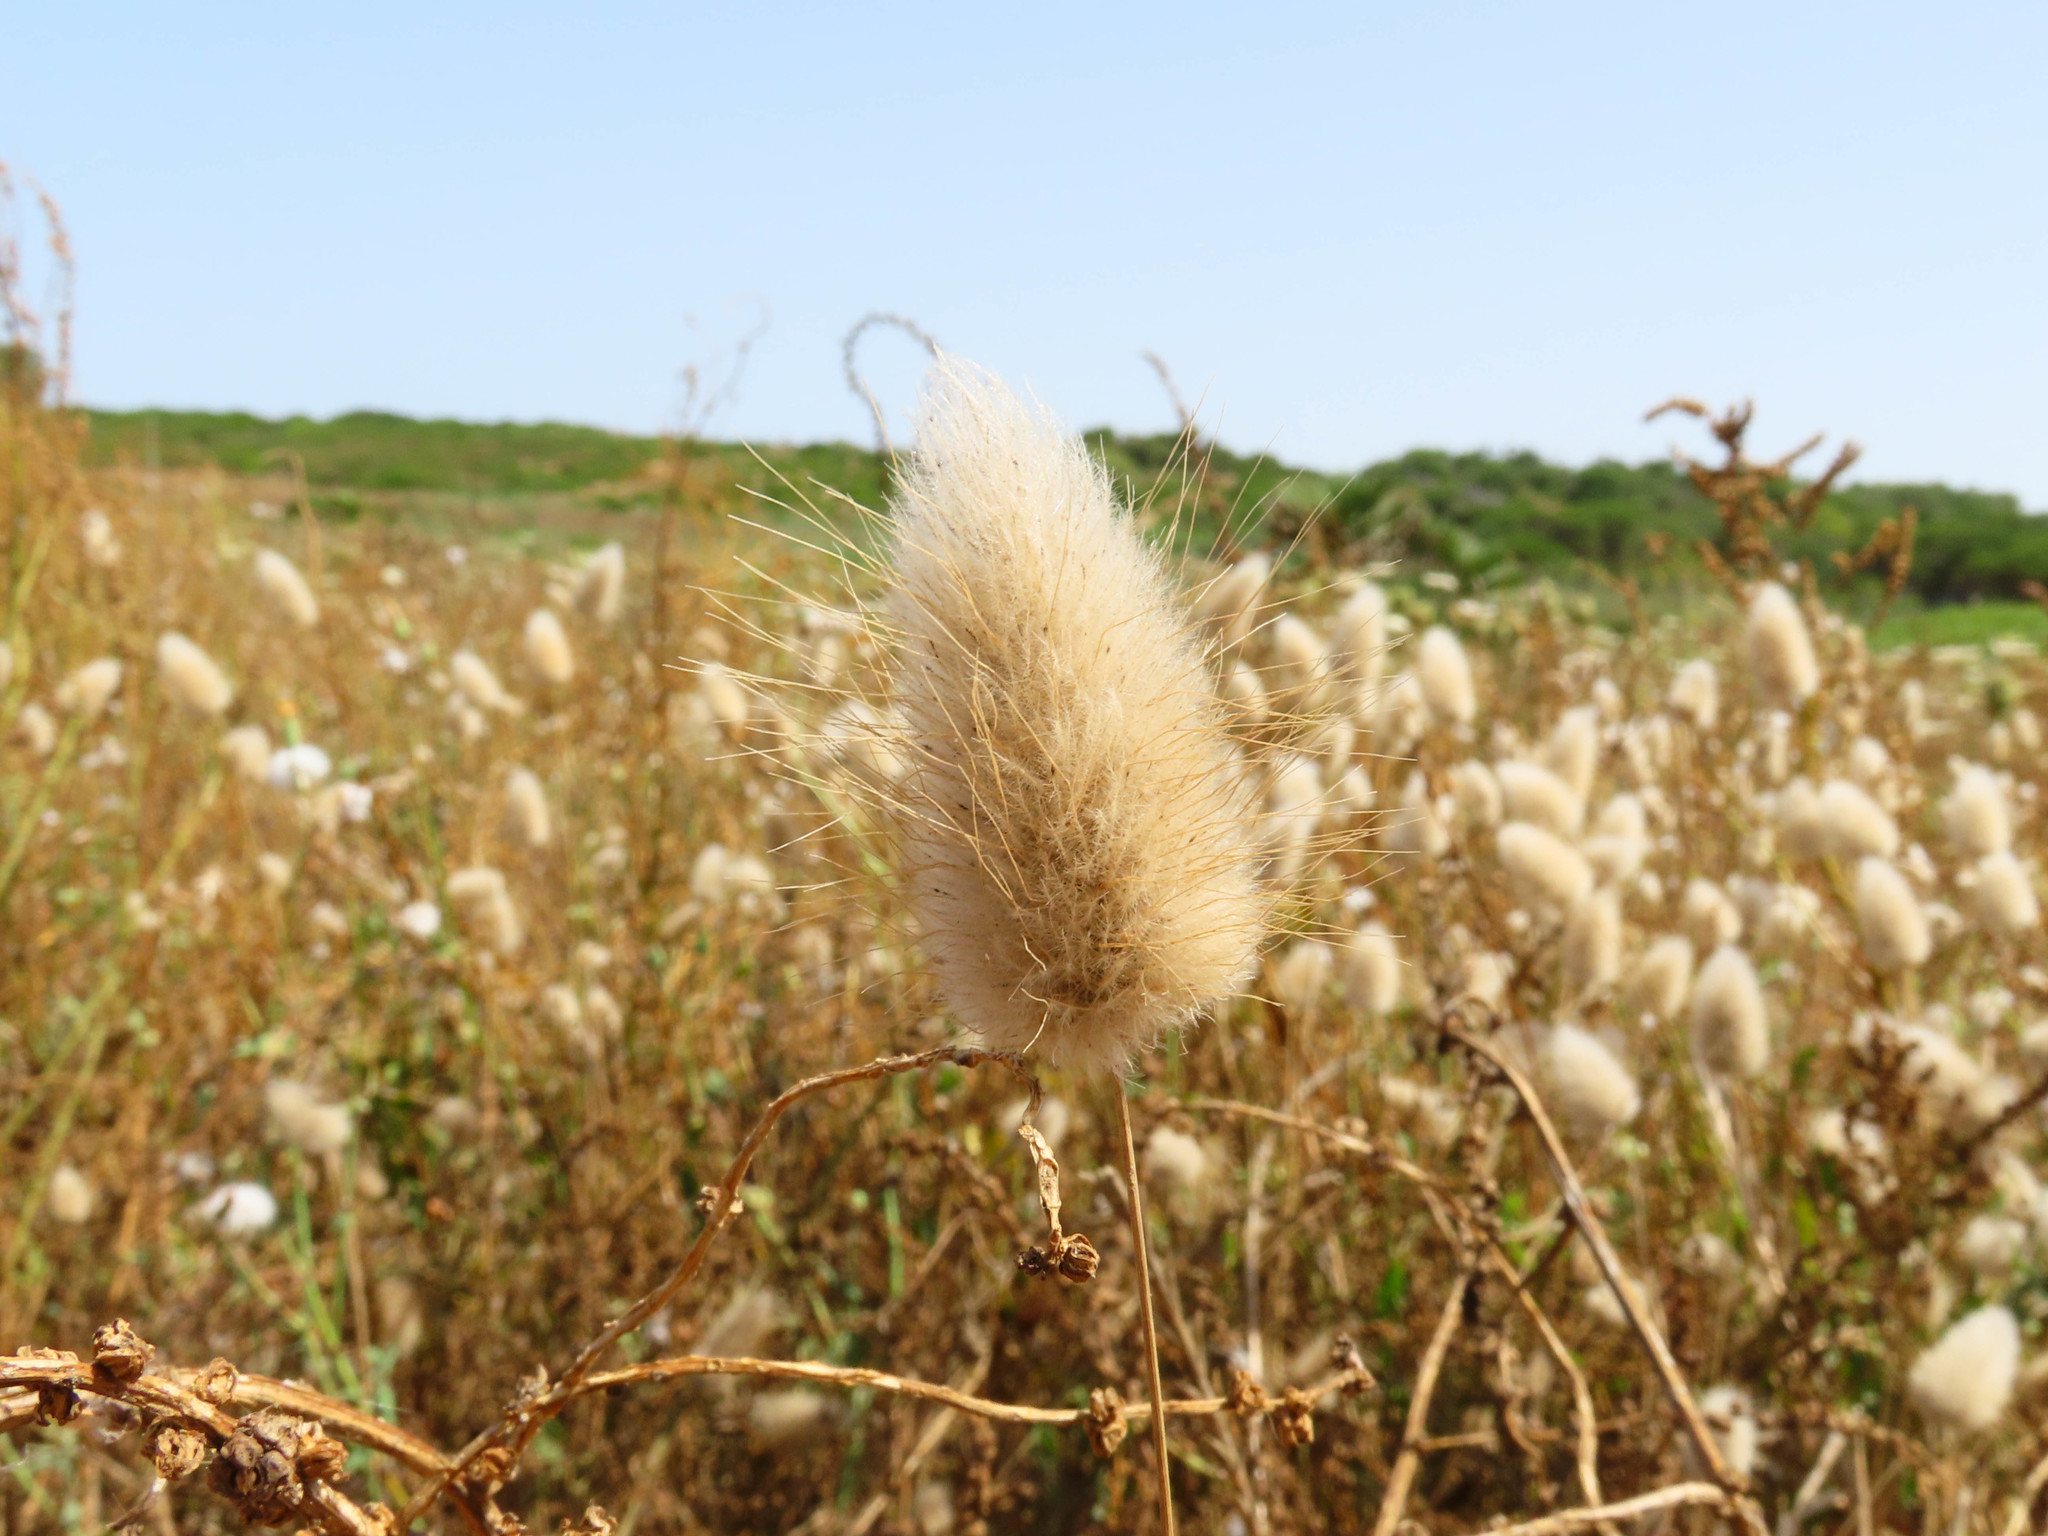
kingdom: Plantae
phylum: Tracheophyta
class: Liliopsida
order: Poales
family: Poaceae
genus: Lagurus
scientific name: Lagurus ovatus
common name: Hare's-tail
